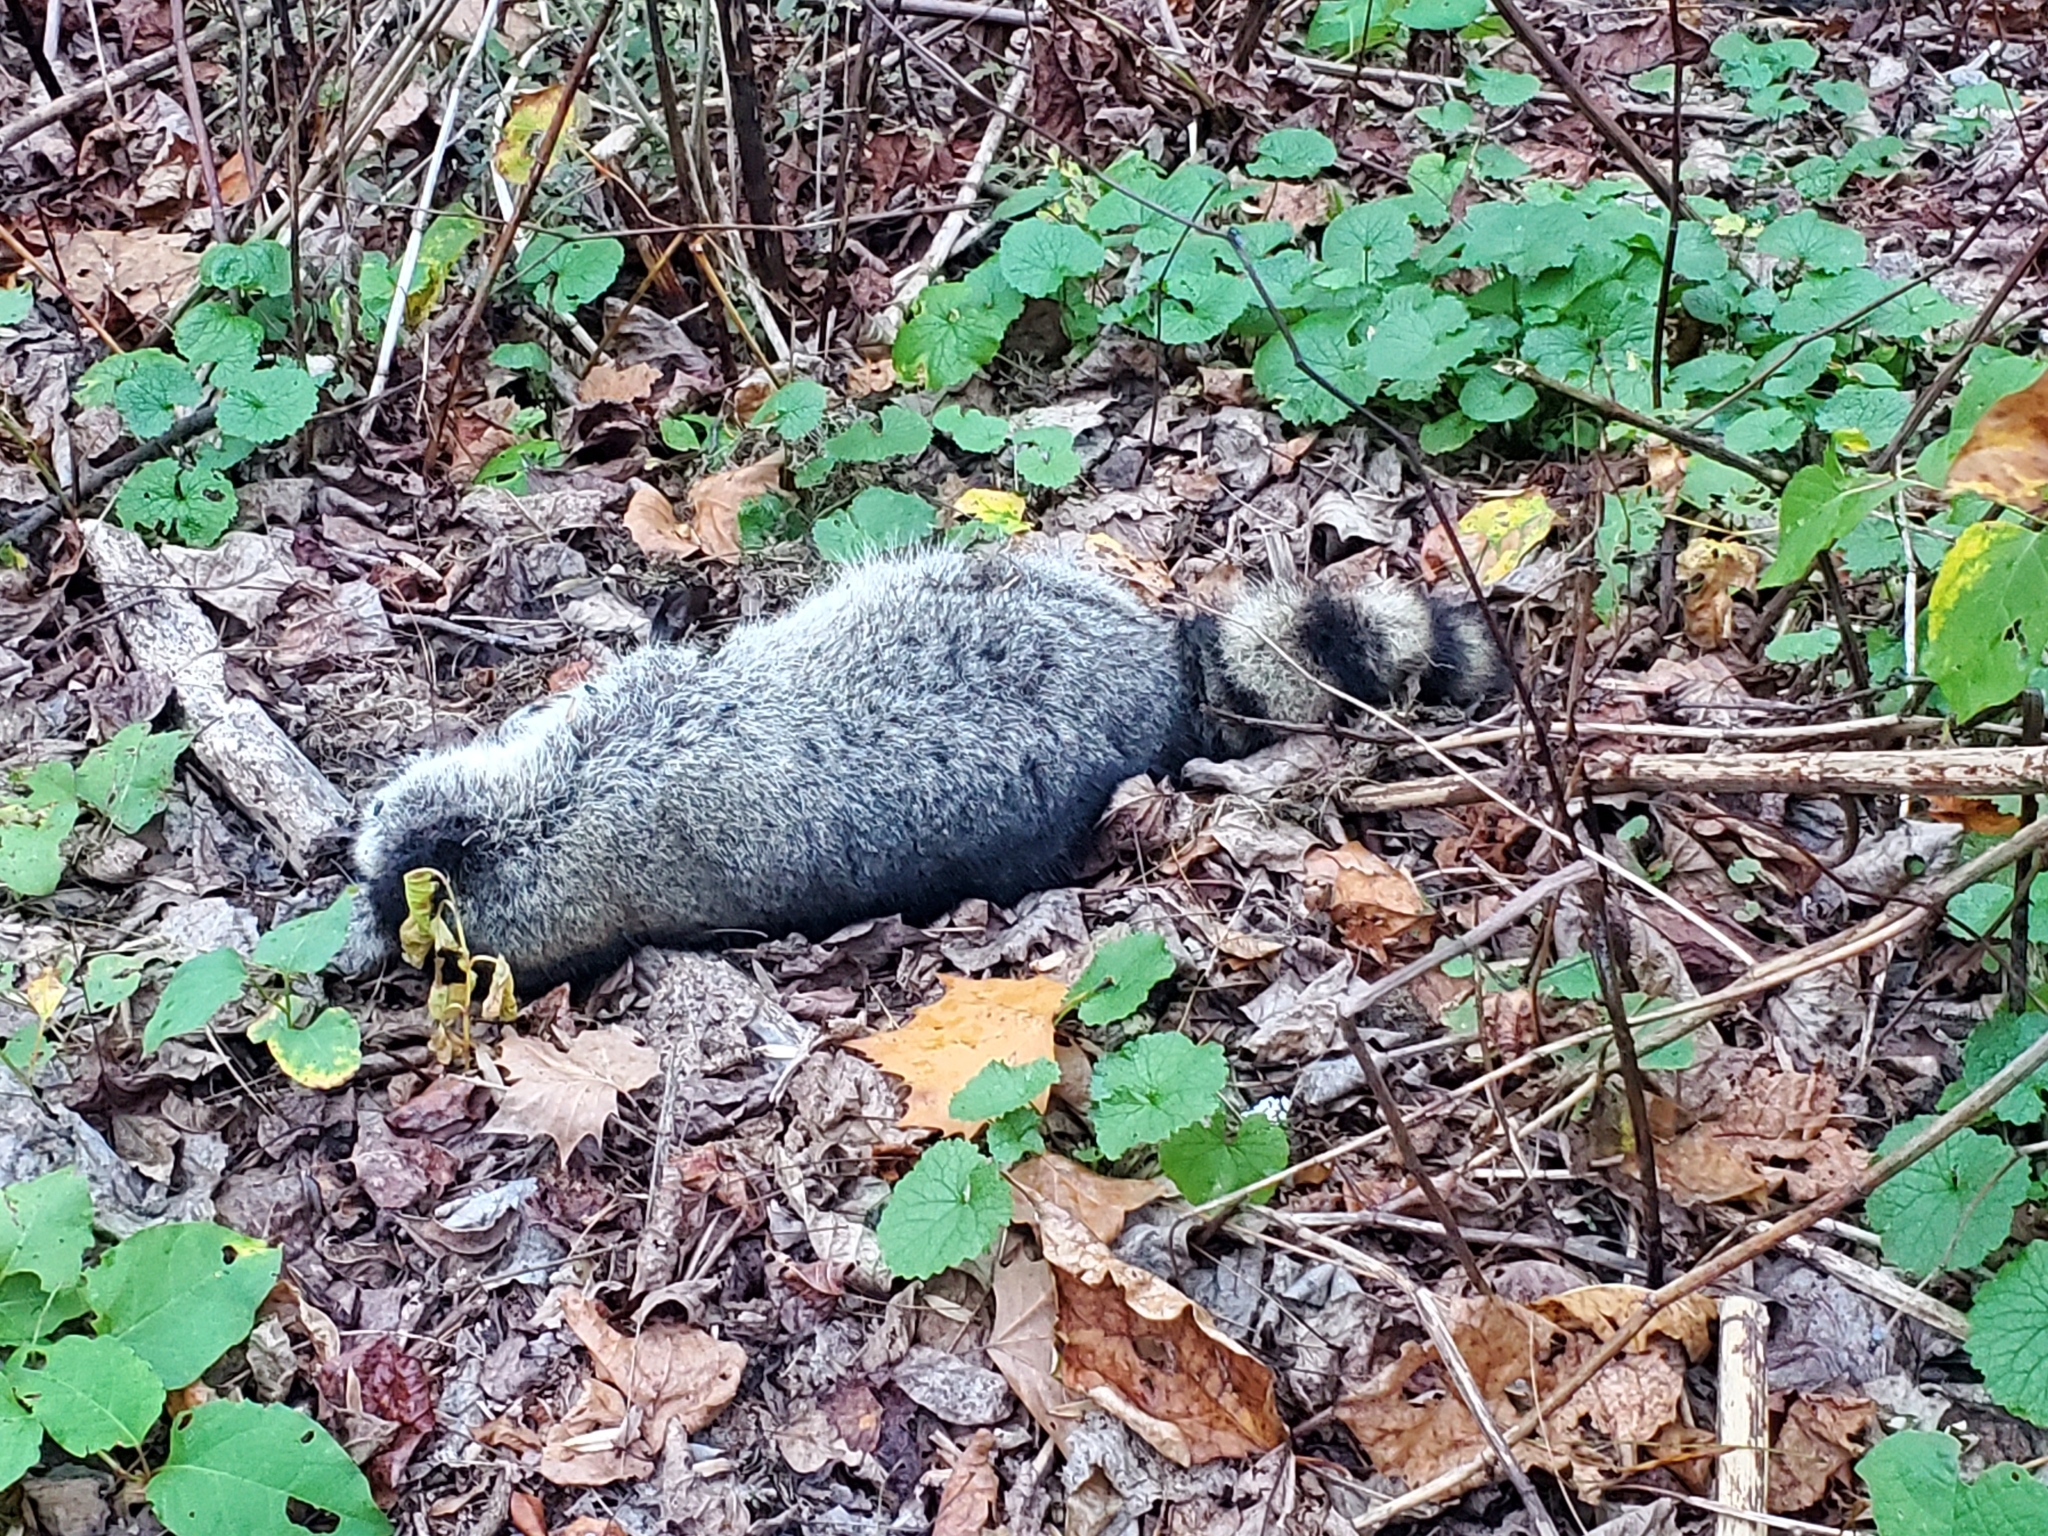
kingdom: Animalia
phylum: Chordata
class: Mammalia
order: Carnivora
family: Procyonidae
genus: Procyon
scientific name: Procyon lotor
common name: Raccoon
